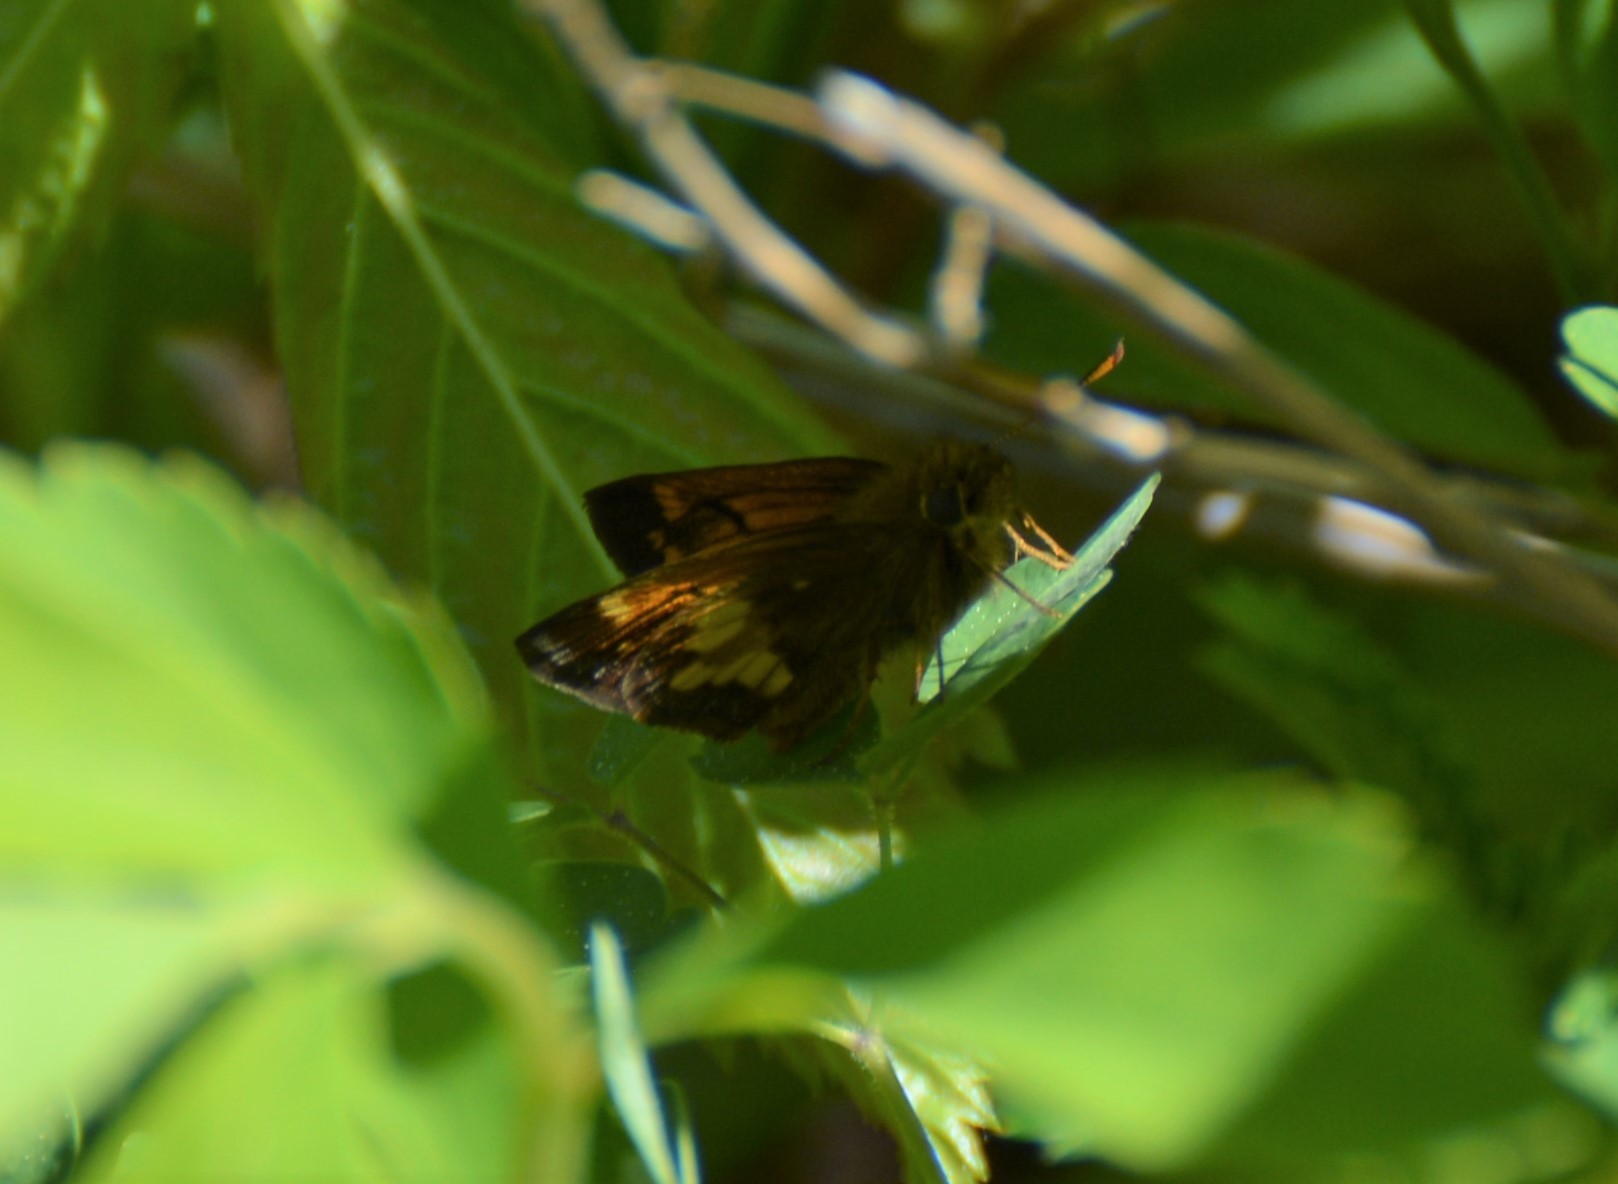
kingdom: Animalia
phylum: Arthropoda
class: Insecta
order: Lepidoptera
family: Hesperiidae
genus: Lon
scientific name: Lon hobomok
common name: Hobomok skipper
